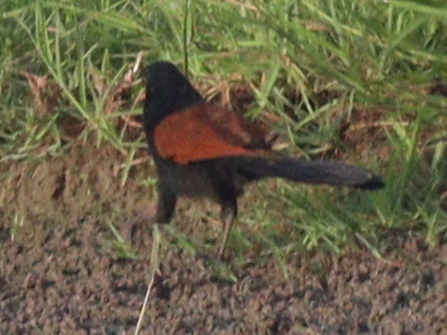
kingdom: Animalia
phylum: Chordata
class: Aves
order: Cuculiformes
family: Cuculidae
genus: Centropus
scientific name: Centropus sinensis
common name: Greater coucal
